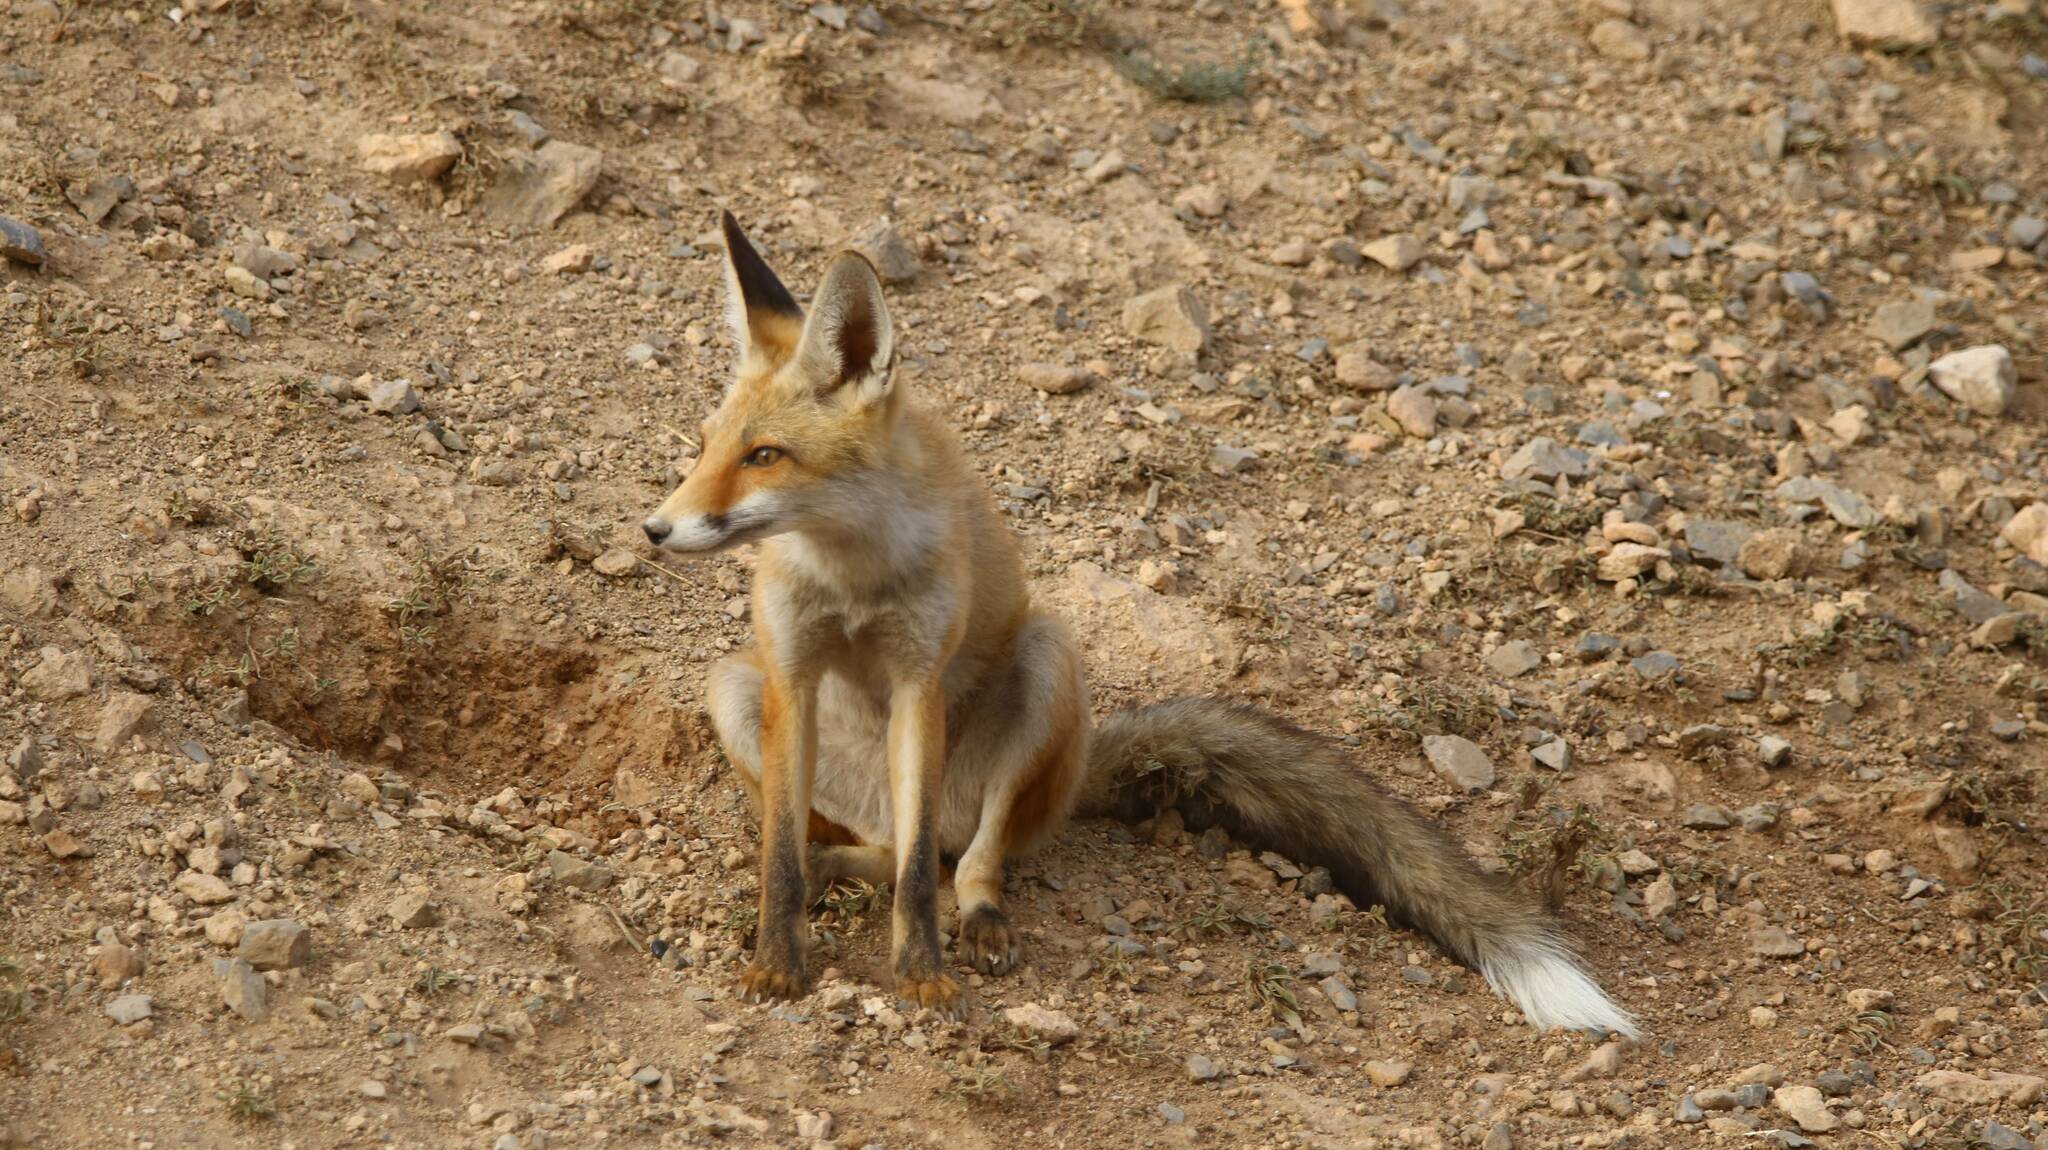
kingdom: Animalia
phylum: Chordata
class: Mammalia
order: Carnivora
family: Canidae
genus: Vulpes
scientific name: Vulpes vulpes
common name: Red fox
